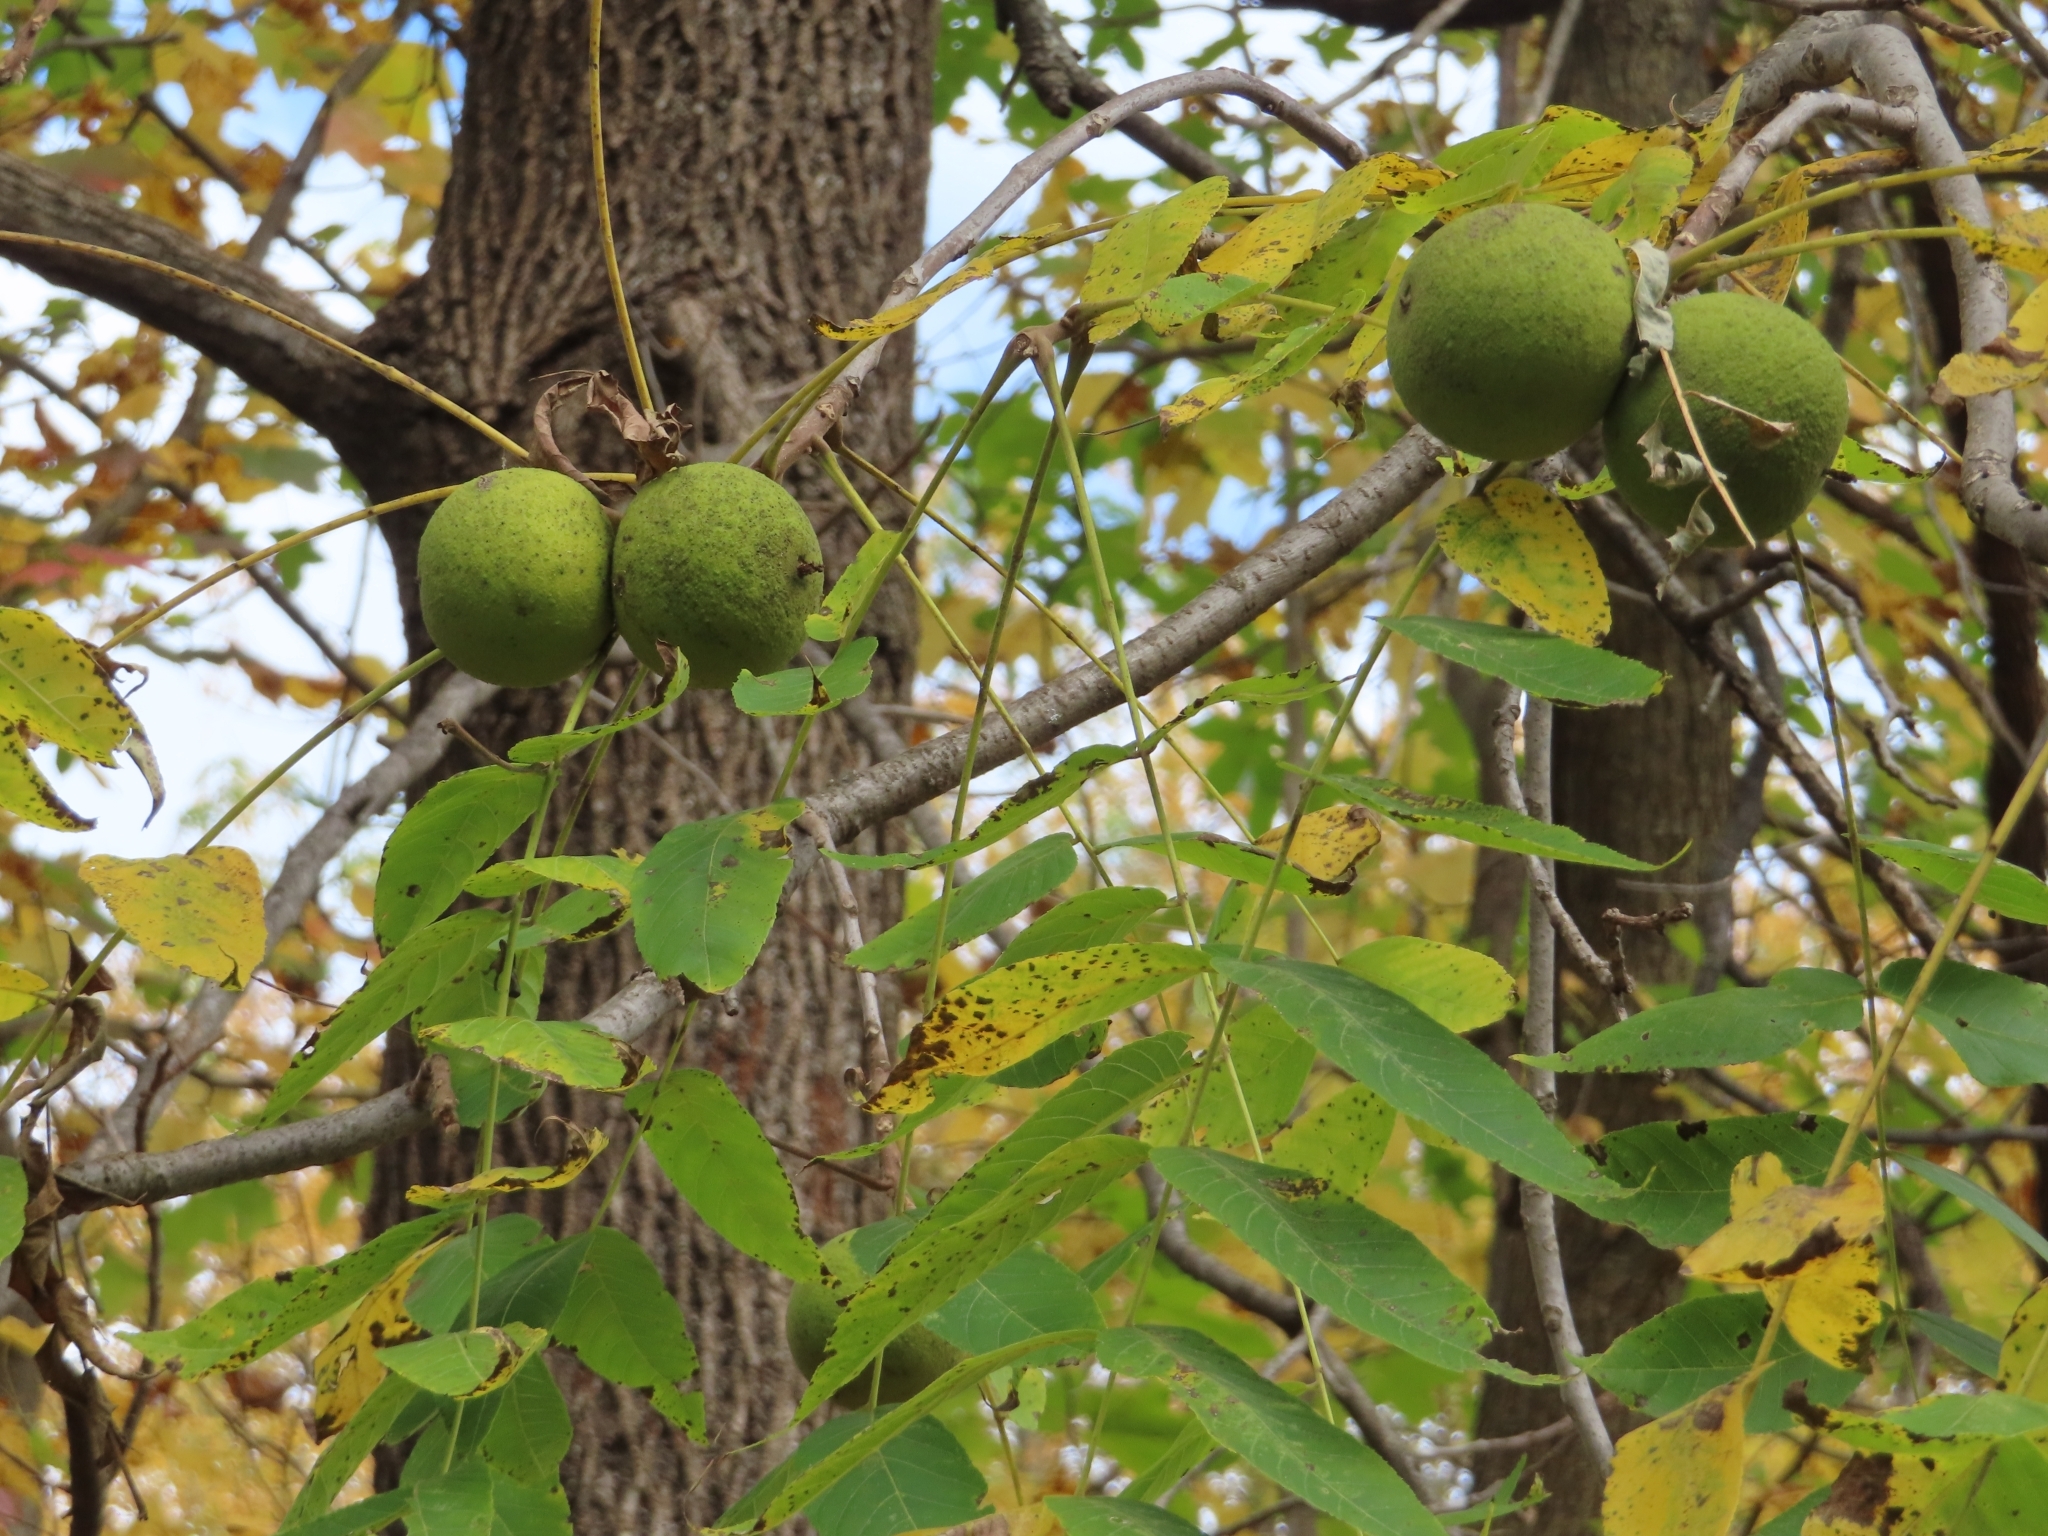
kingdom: Plantae
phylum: Tracheophyta
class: Magnoliopsida
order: Fagales
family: Juglandaceae
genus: Juglans
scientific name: Juglans nigra
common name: Black walnut
